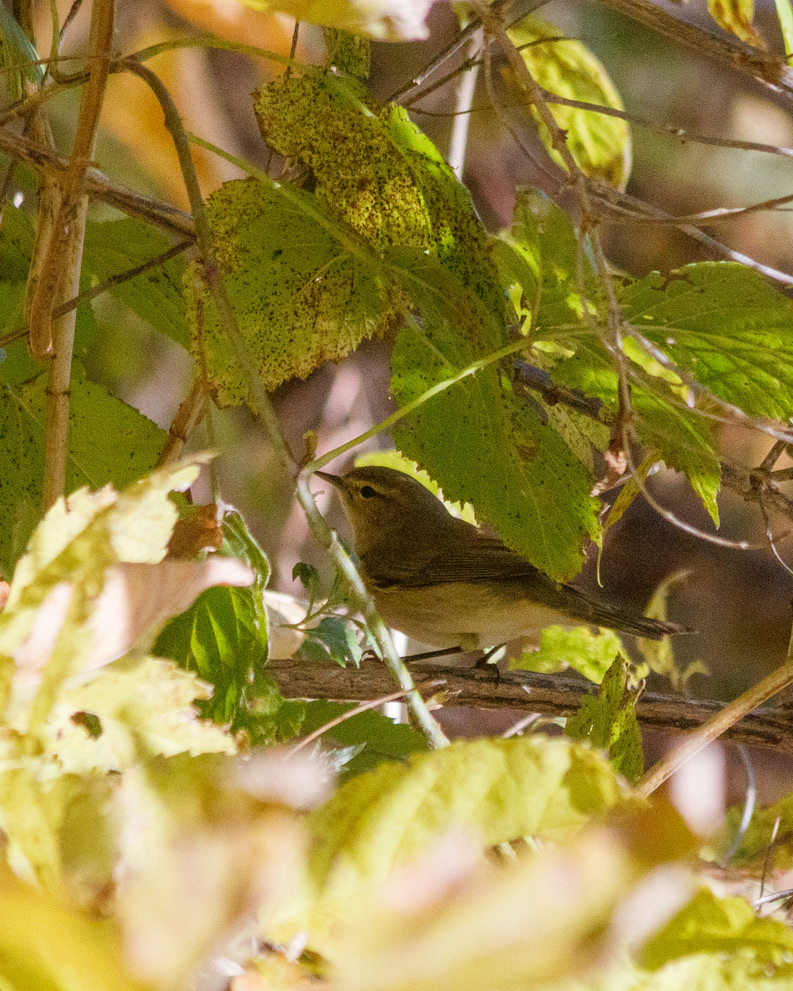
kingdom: Animalia
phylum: Chordata
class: Aves
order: Passeriformes
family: Phylloscopidae
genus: Phylloscopus
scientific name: Phylloscopus collybita
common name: Common chiffchaff
